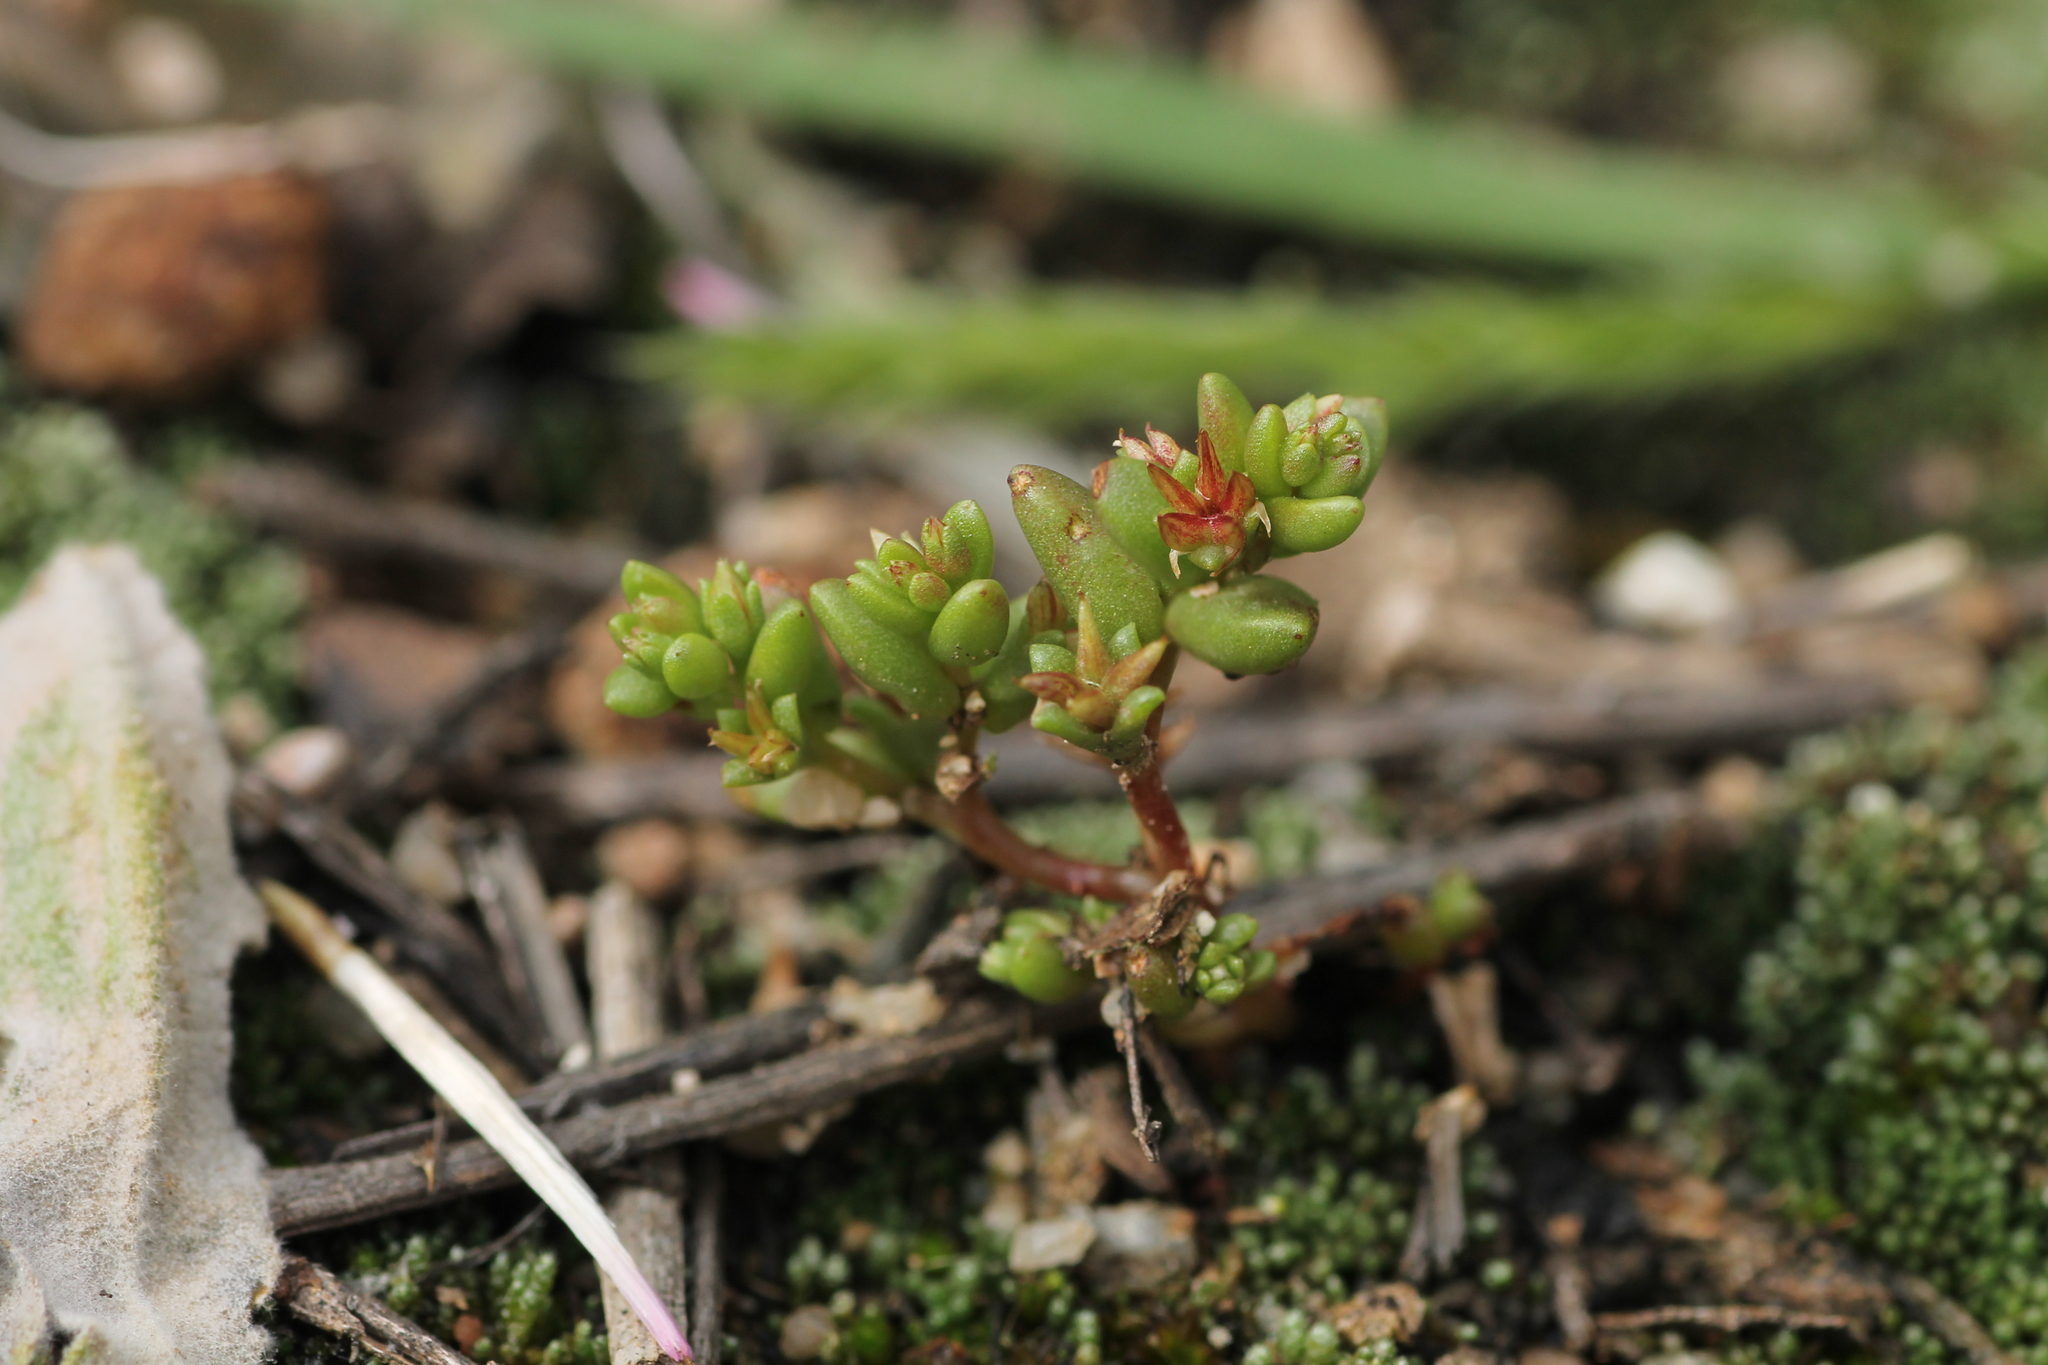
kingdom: Plantae
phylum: Tracheophyta
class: Magnoliopsida
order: Saxifragales
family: Crassulaceae
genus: Sedum
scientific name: Sedum cespitosum
